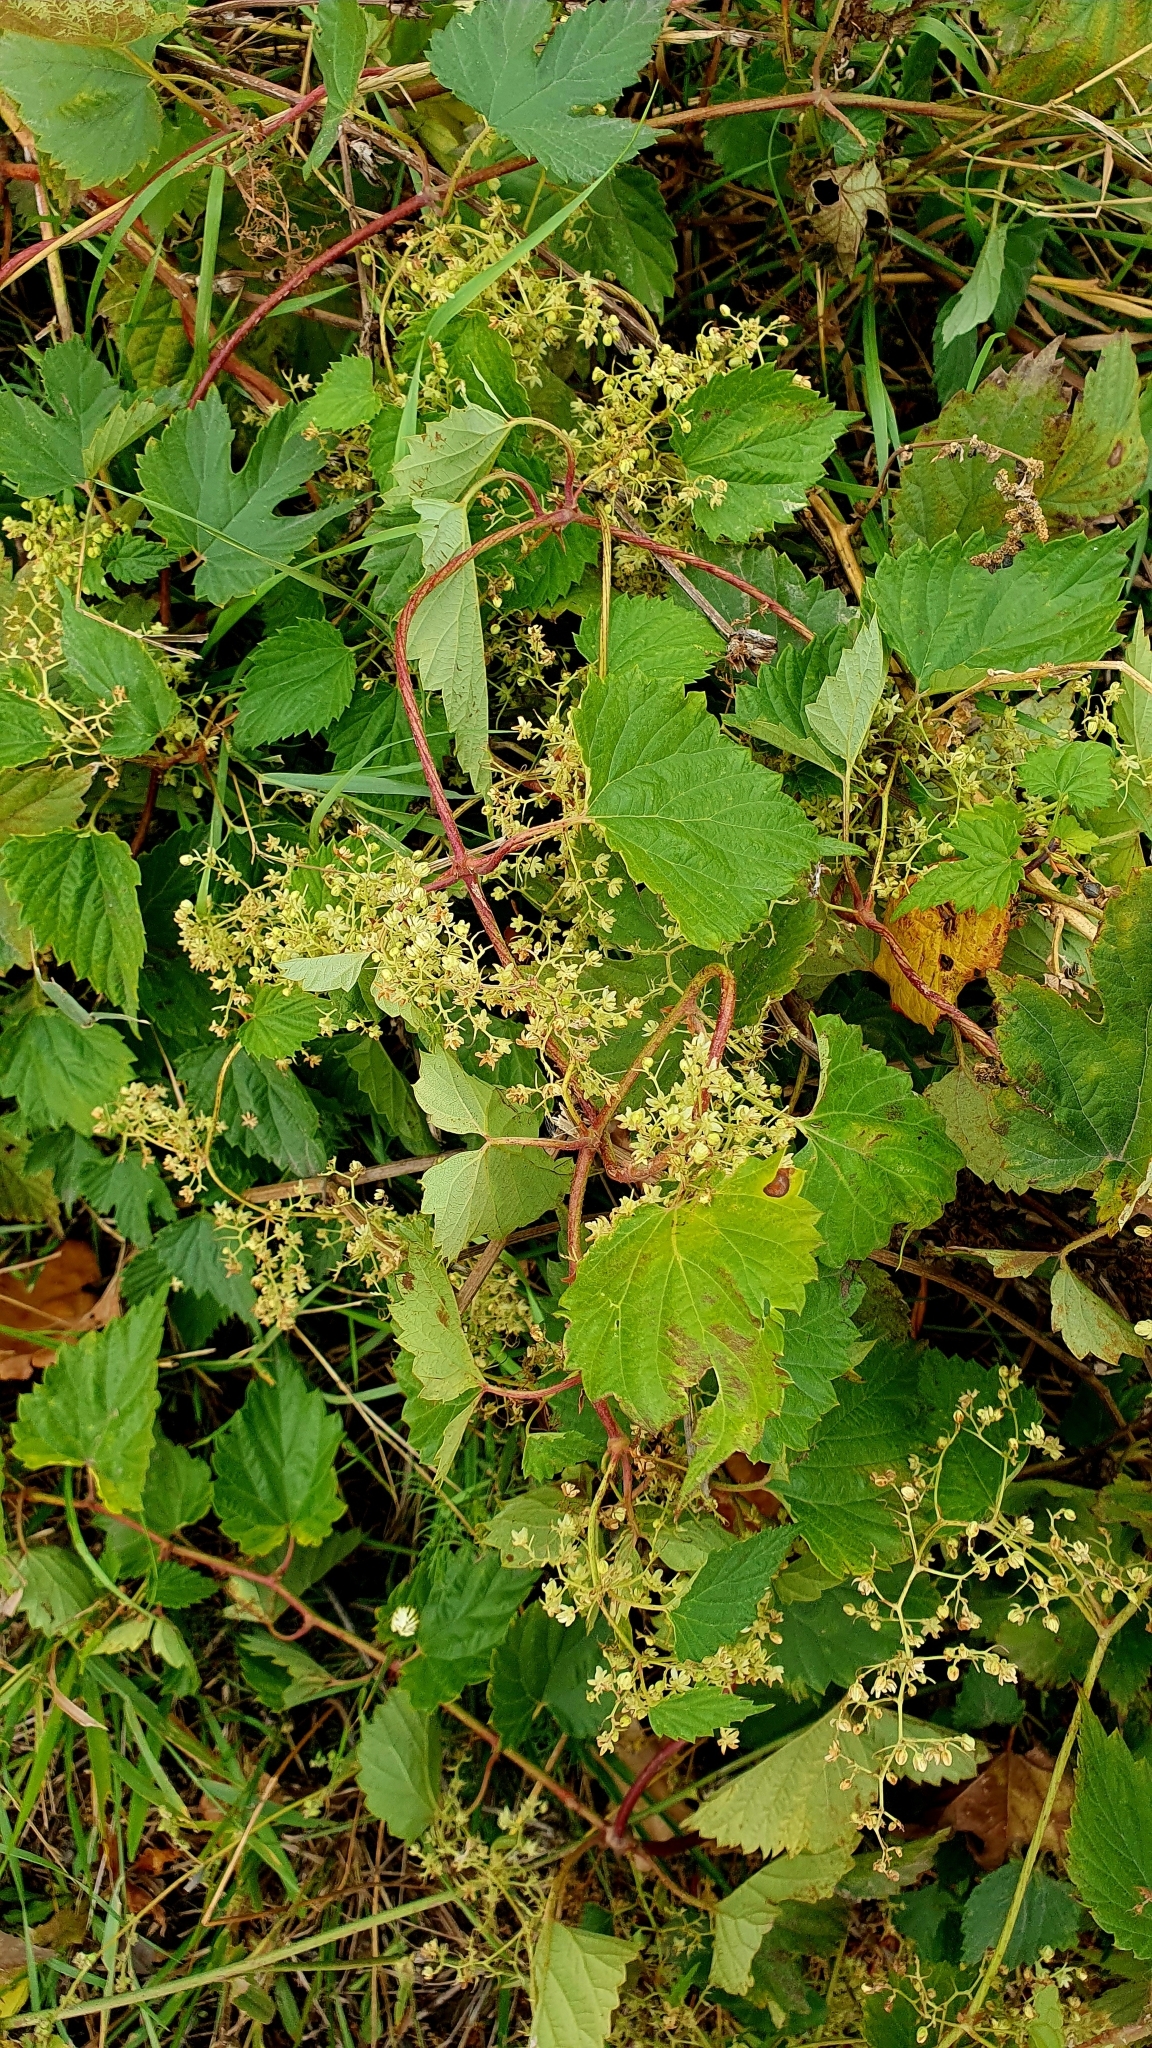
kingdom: Plantae
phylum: Tracheophyta
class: Magnoliopsida
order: Rosales
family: Cannabaceae
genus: Humulus
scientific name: Humulus lupulus
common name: Hop
